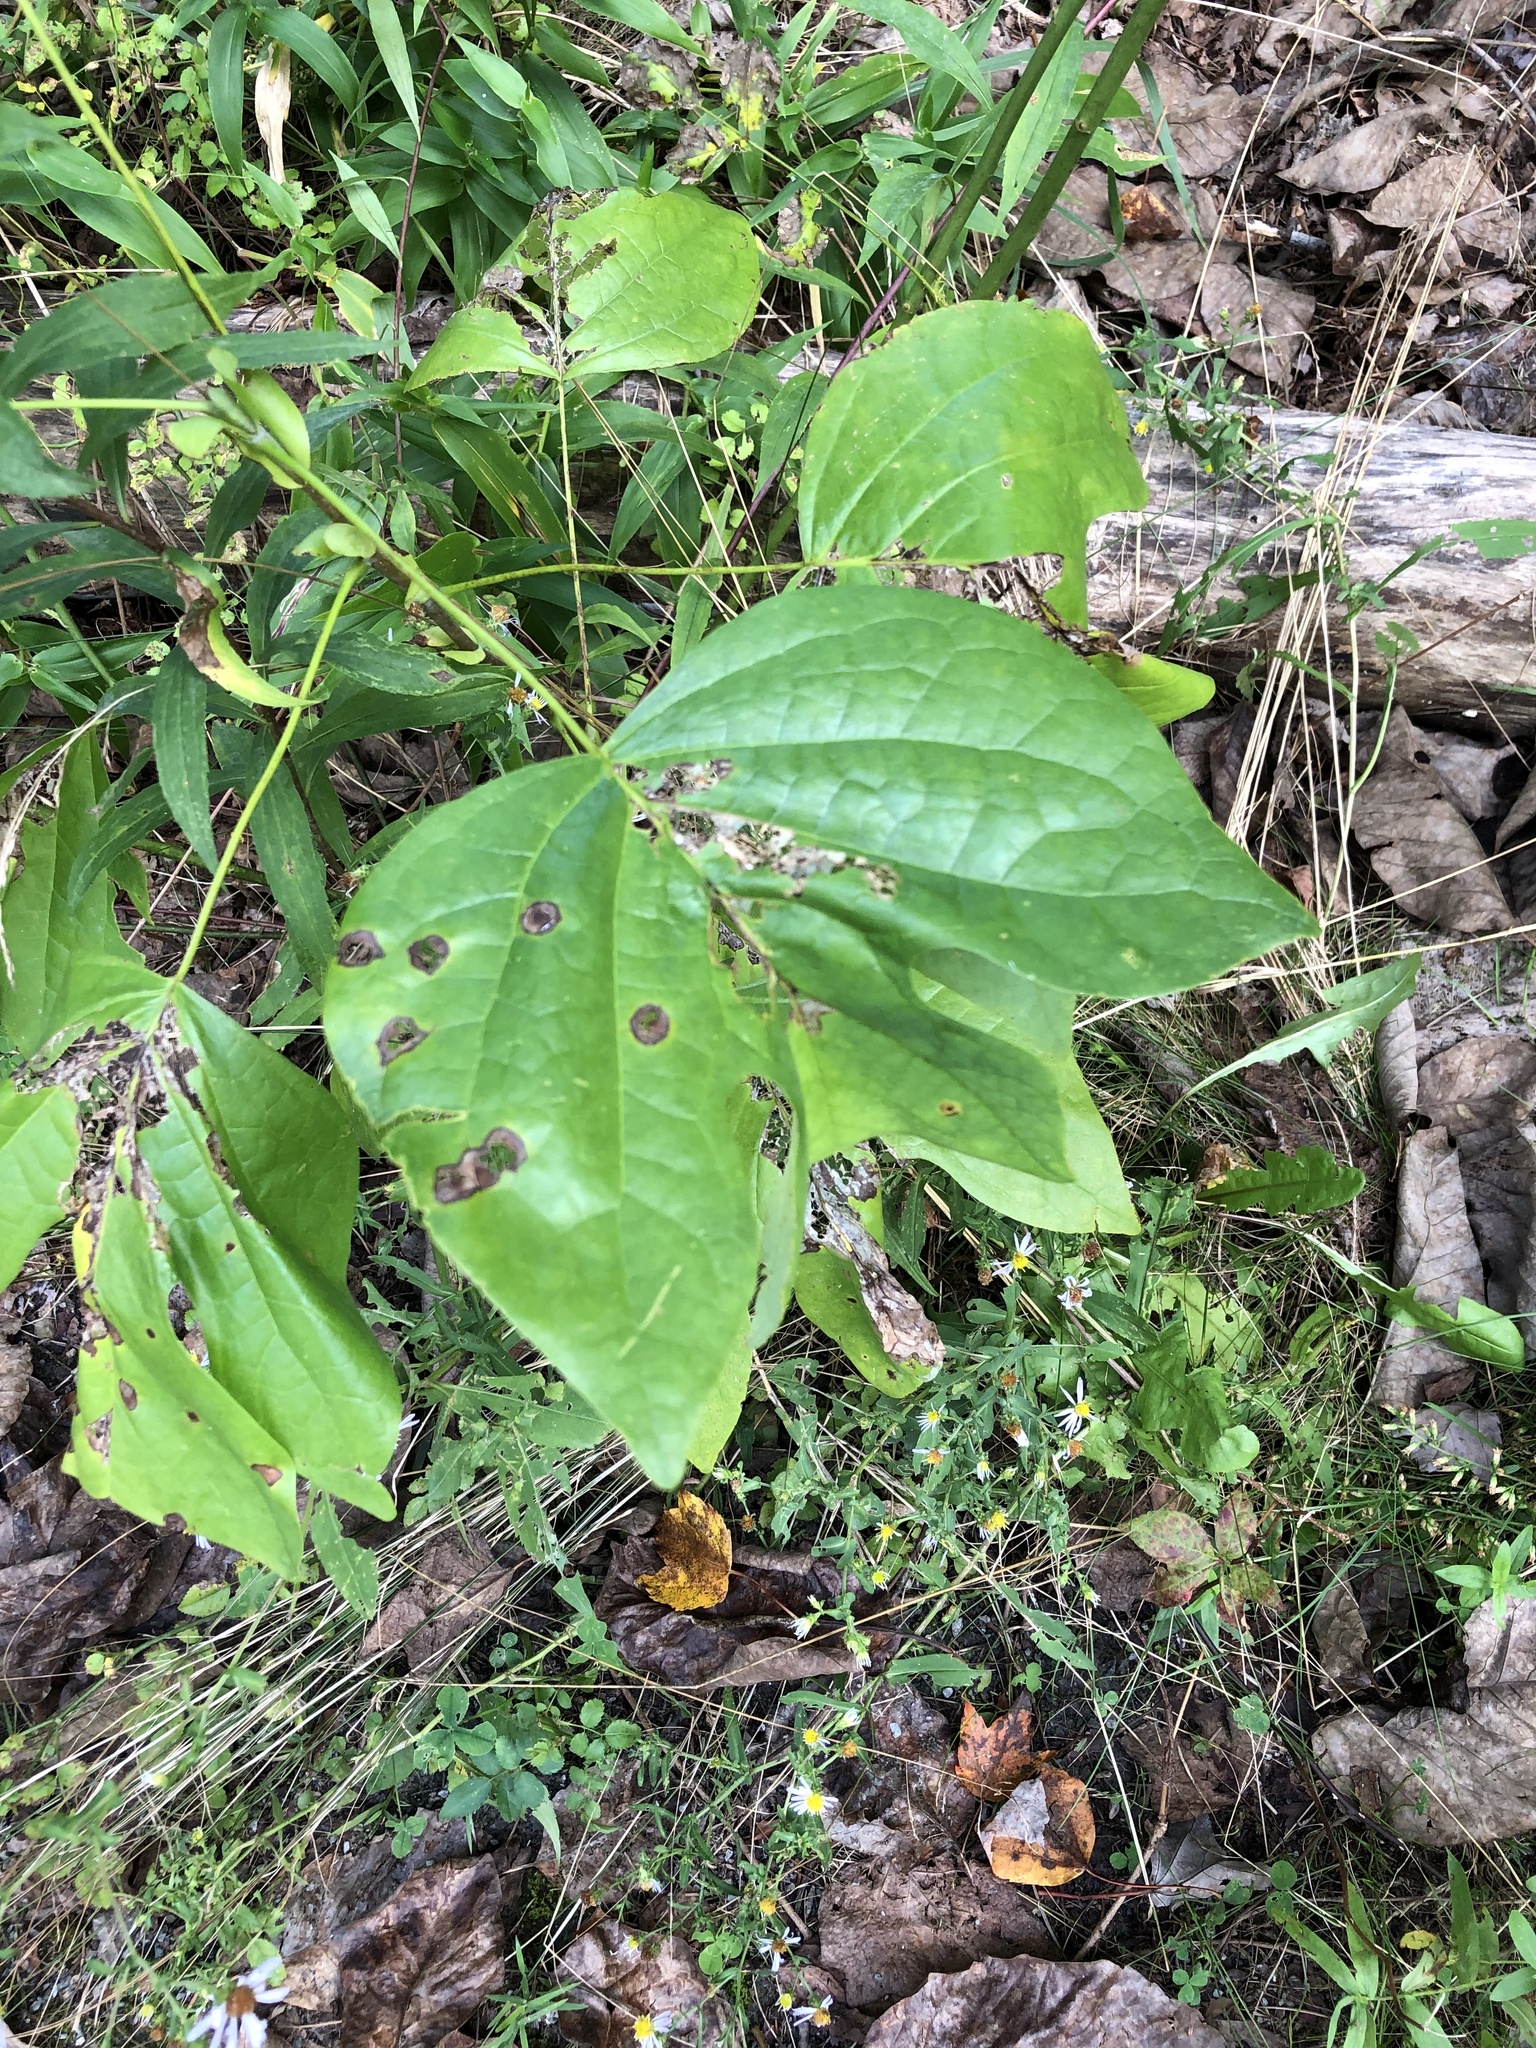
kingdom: Plantae
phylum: Tracheophyta
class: Magnoliopsida
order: Magnoliales
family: Magnoliaceae
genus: Liriodendron
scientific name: Liriodendron tulipifera
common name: Tulip tree
